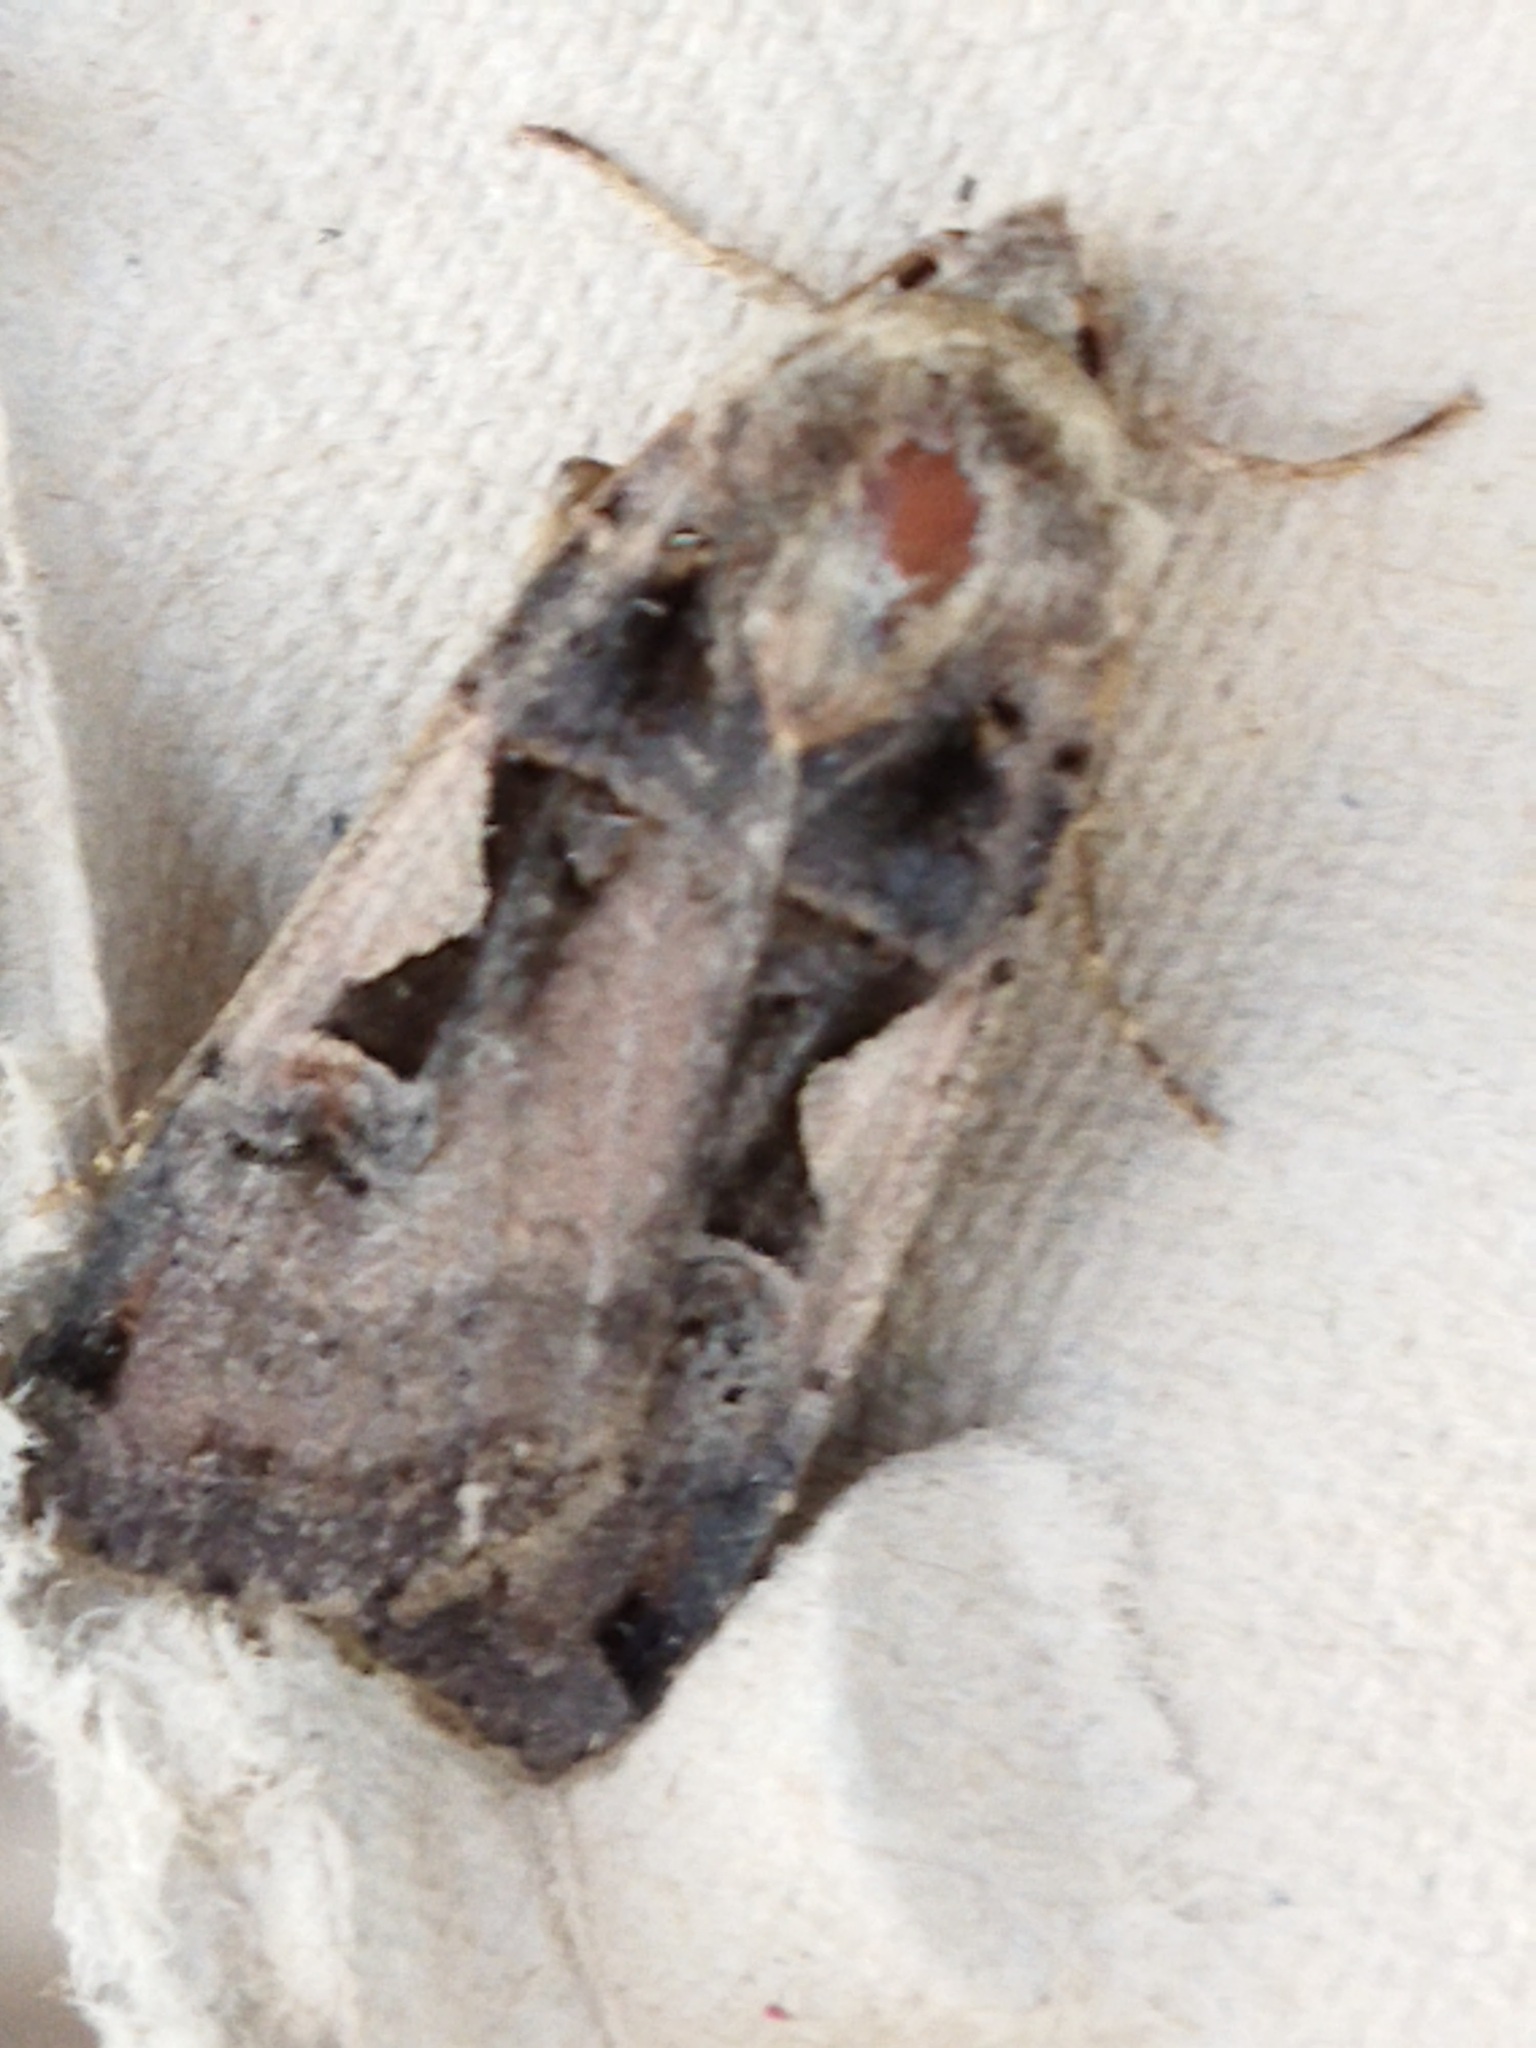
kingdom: Animalia
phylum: Arthropoda
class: Insecta
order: Lepidoptera
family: Noctuidae
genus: Xestia
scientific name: Xestia c-nigrum
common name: Setaceous hebrew character
